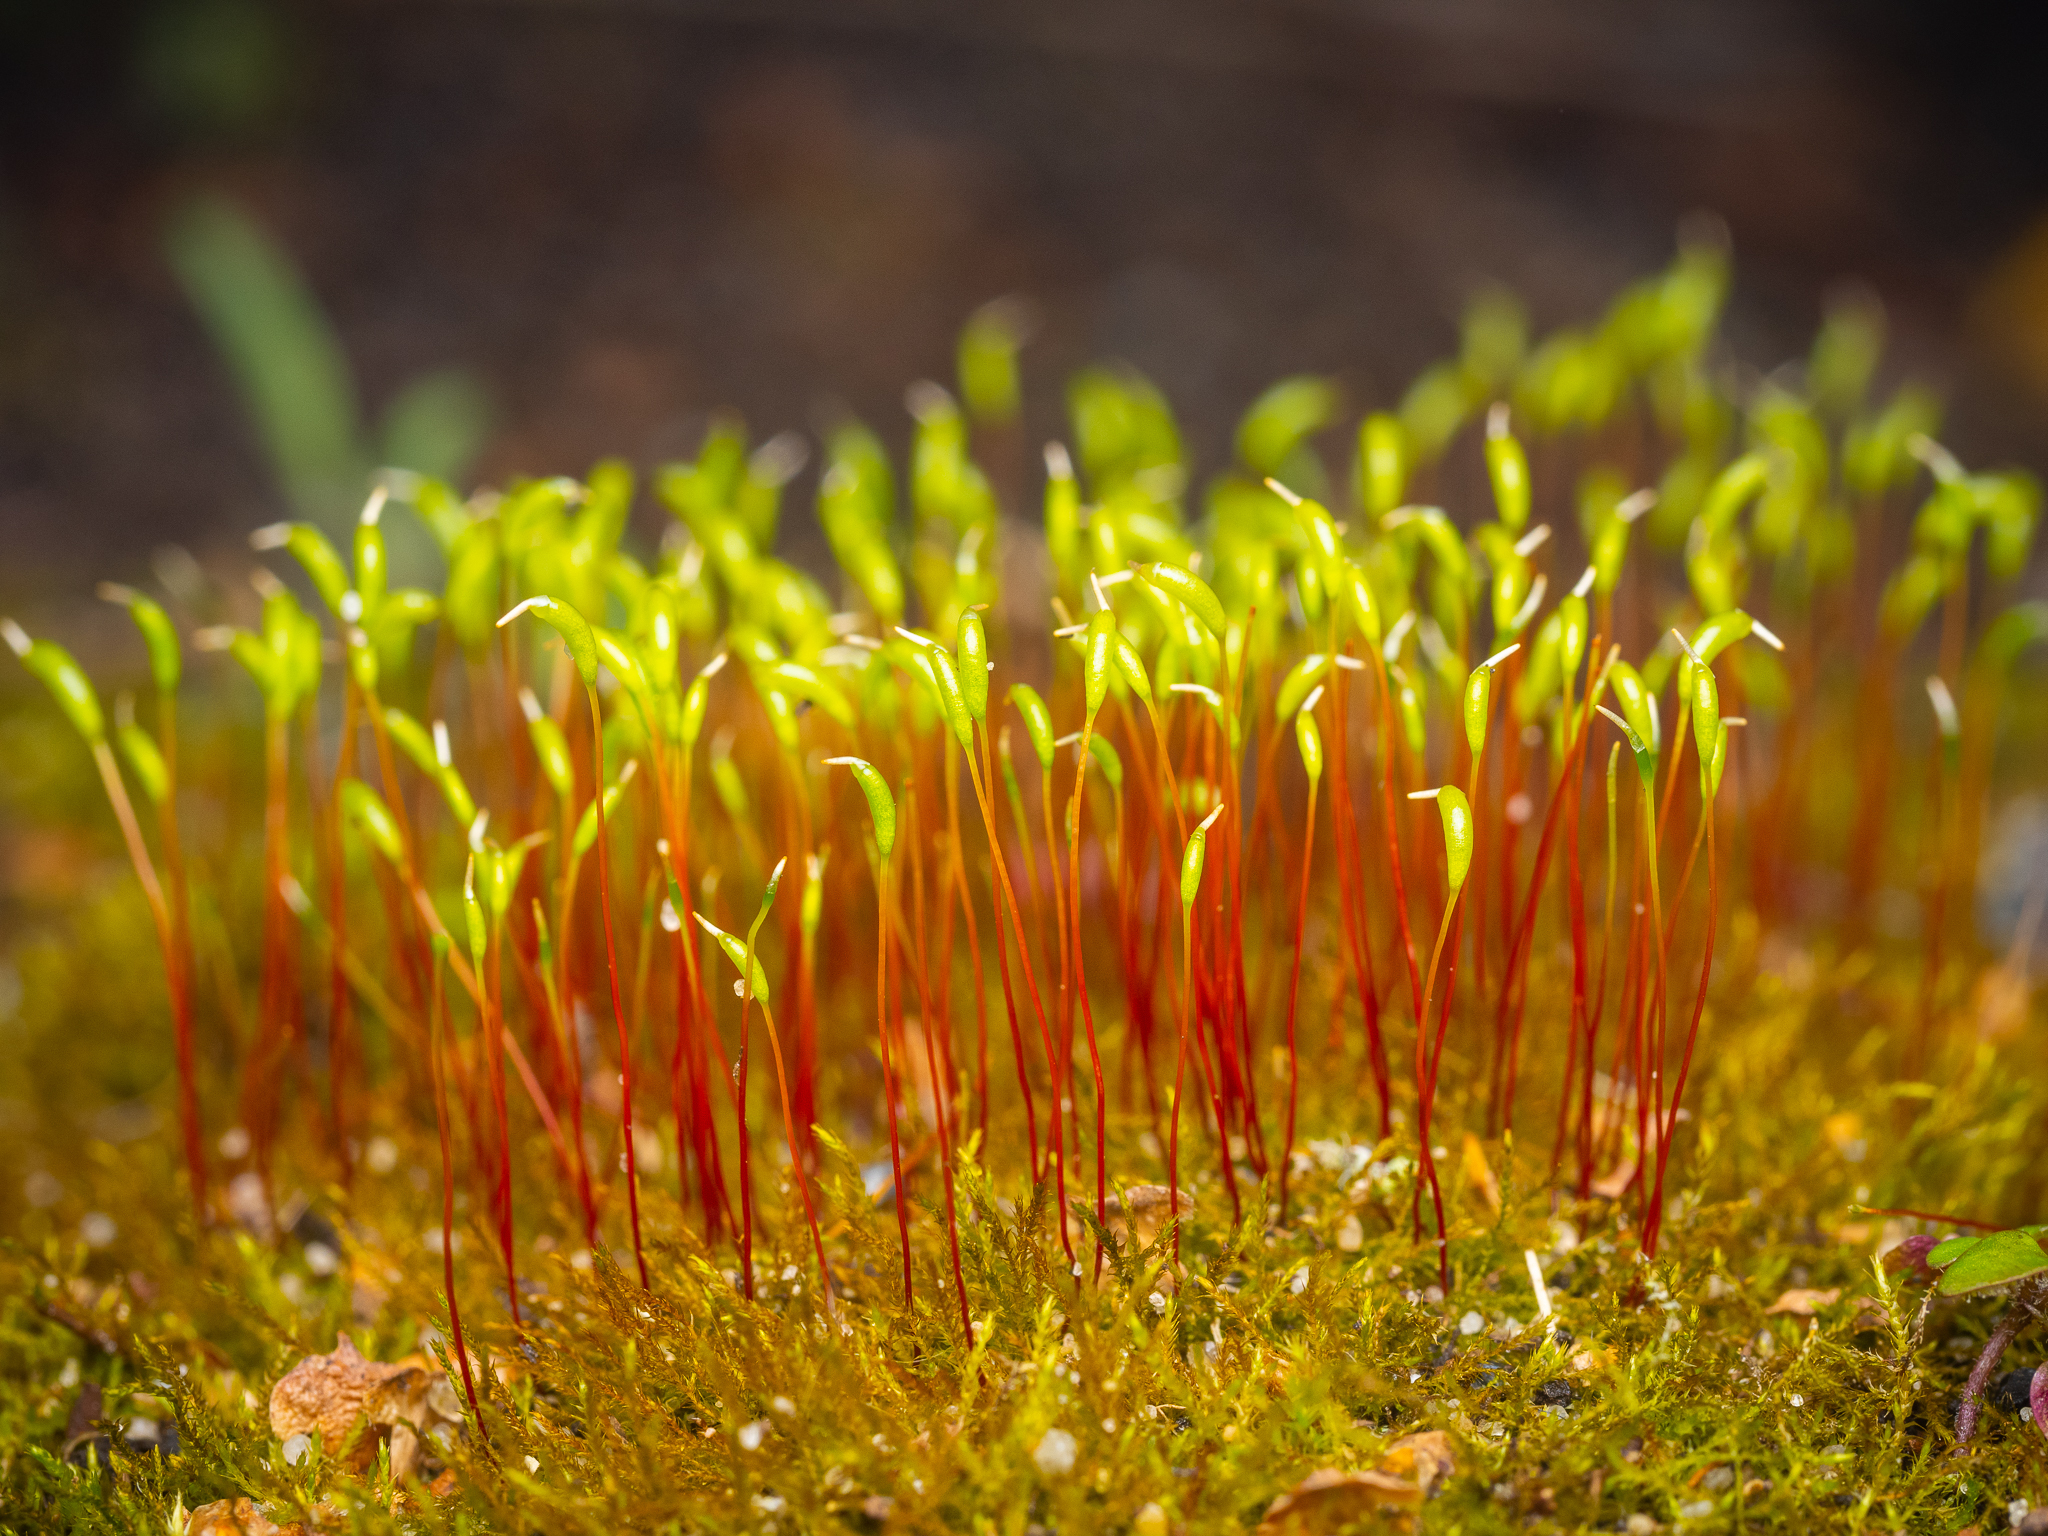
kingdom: Plantae
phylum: Bryophyta
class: Bryopsida
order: Hypnales
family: Amblystegiaceae
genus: Amblystegium
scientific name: Amblystegium serpens
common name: Jurkatzka's feather moss
